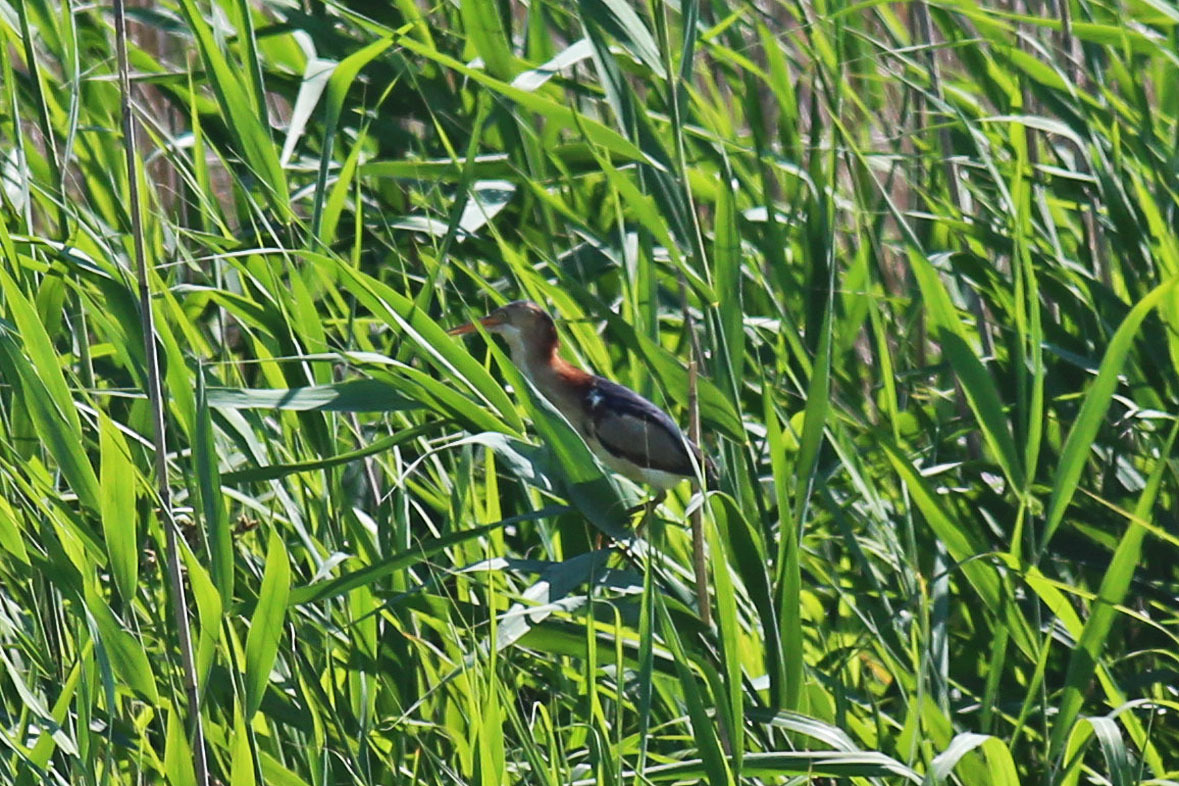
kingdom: Animalia
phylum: Chordata
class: Aves
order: Pelecaniformes
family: Ardeidae
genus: Ixobrychus
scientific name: Ixobrychus exilis
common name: Least bittern
